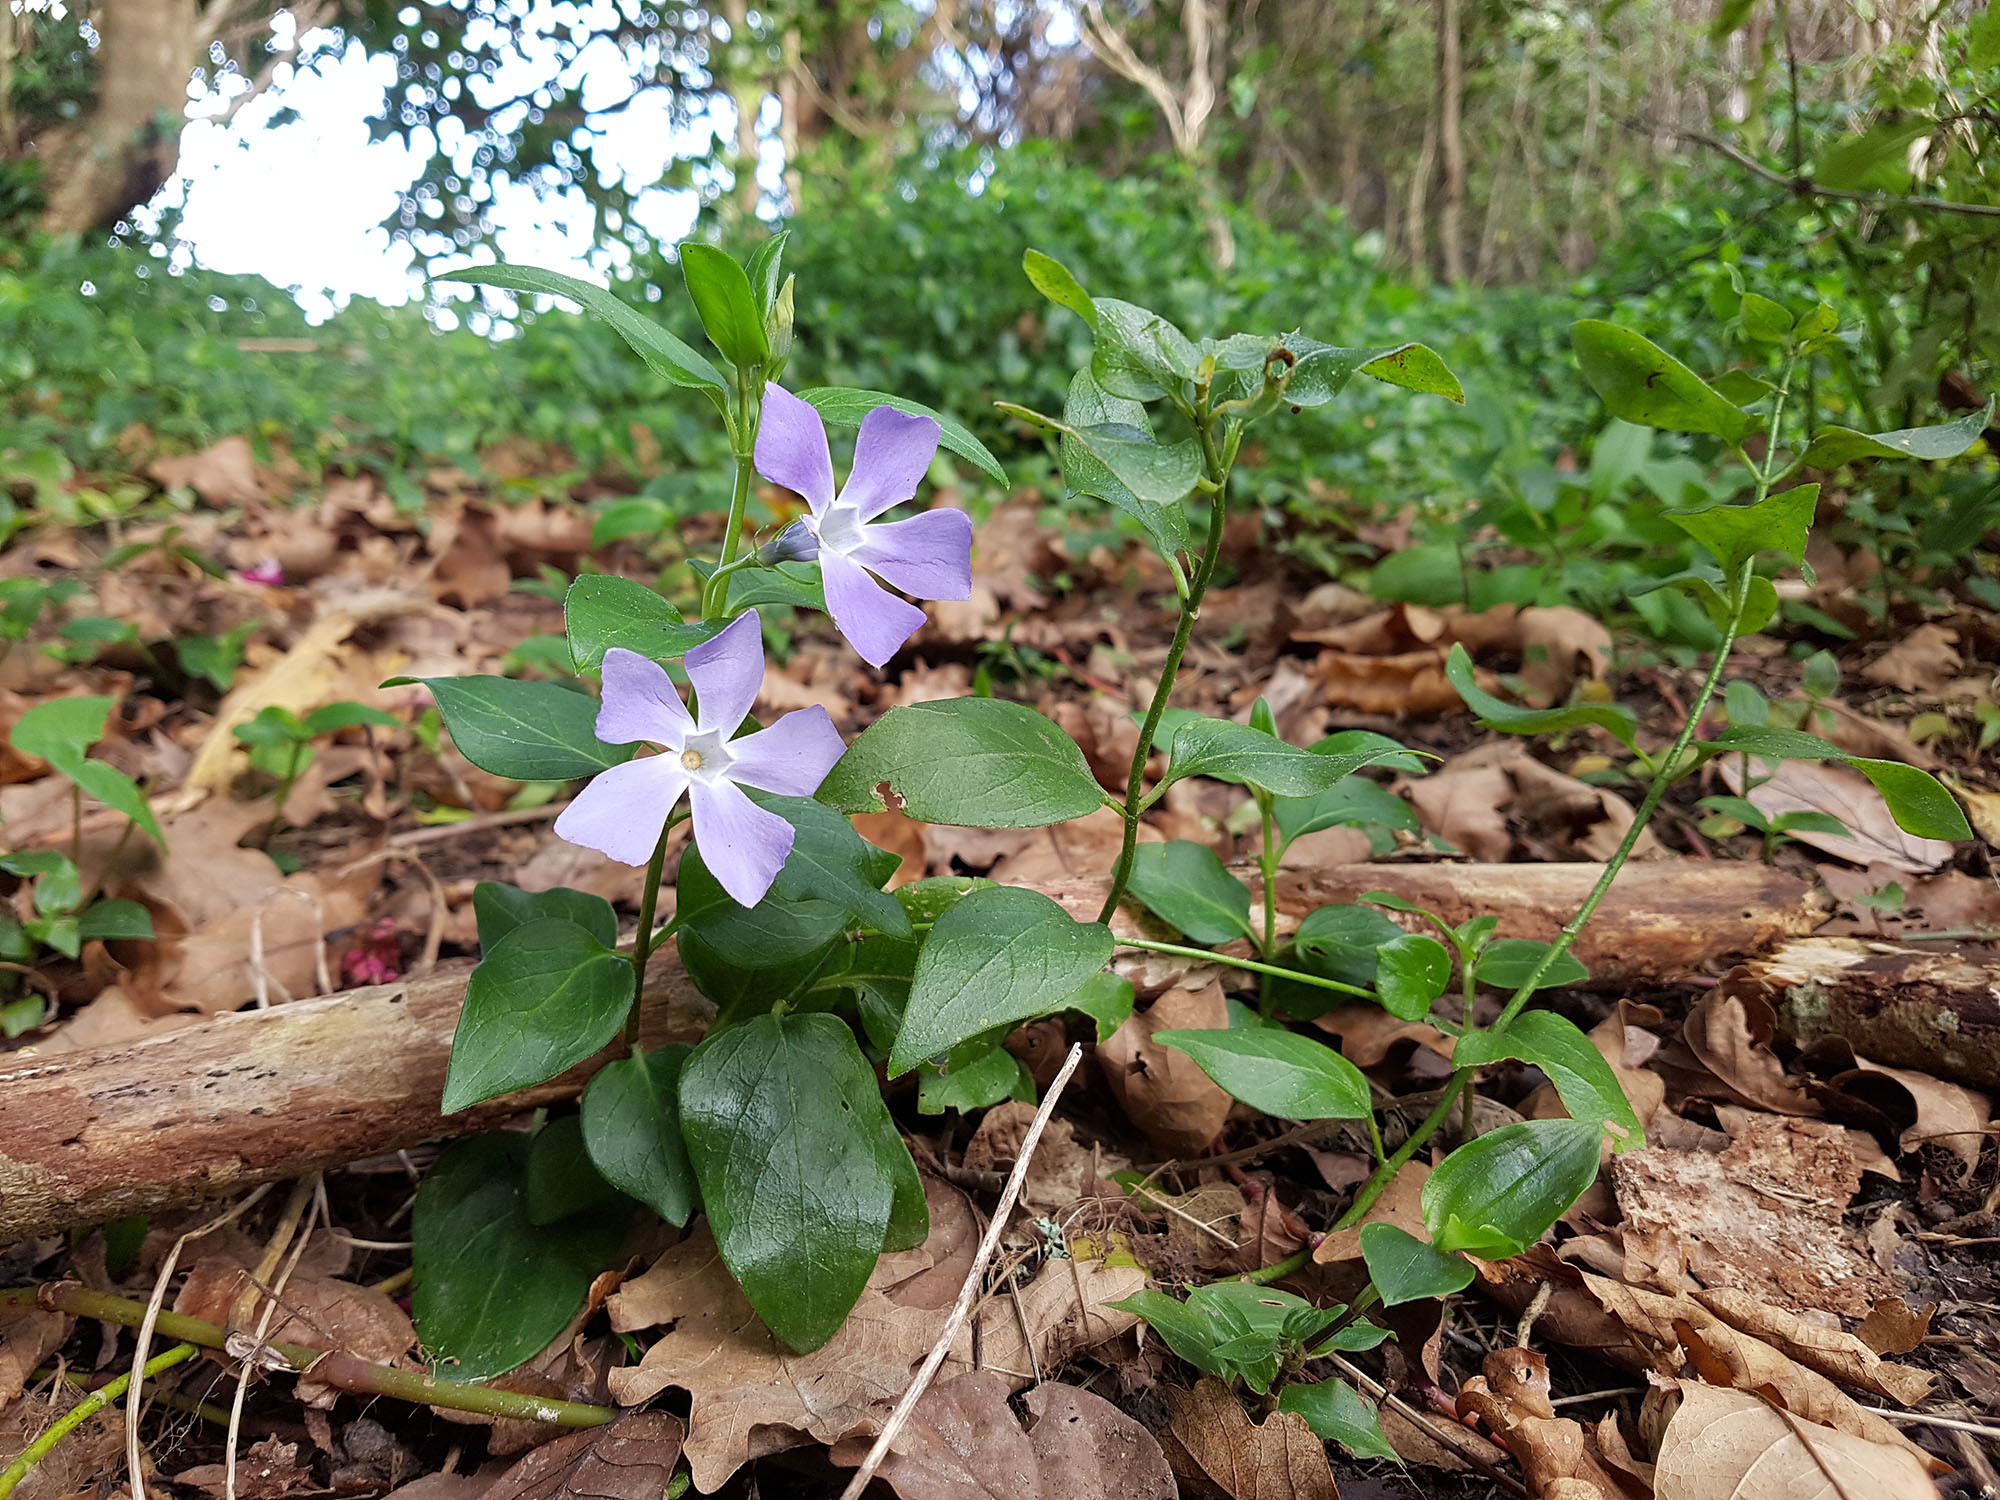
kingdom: Plantae
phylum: Tracheophyta
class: Magnoliopsida
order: Gentianales
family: Apocynaceae
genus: Vinca
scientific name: Vinca major
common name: Greater periwinkle
